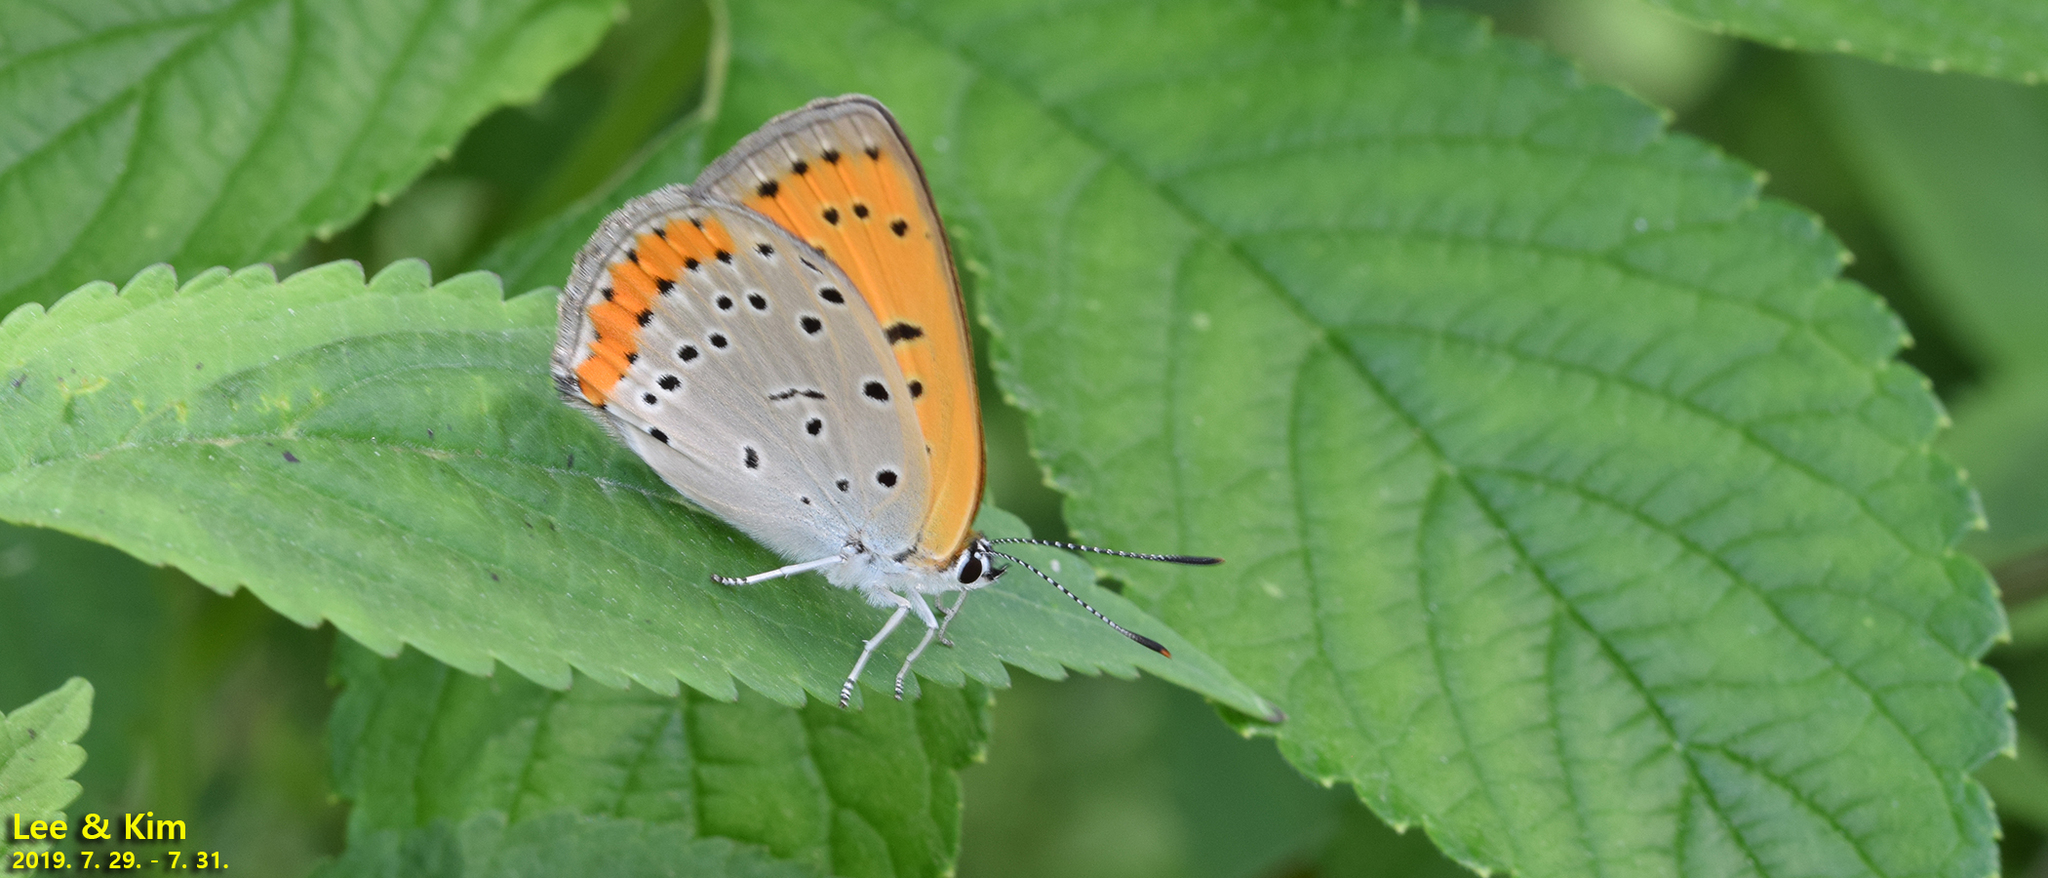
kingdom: Animalia
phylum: Arthropoda
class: Insecta
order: Lepidoptera
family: Lycaenidae
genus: Lycaena
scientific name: Lycaena dispar
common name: Large copper
